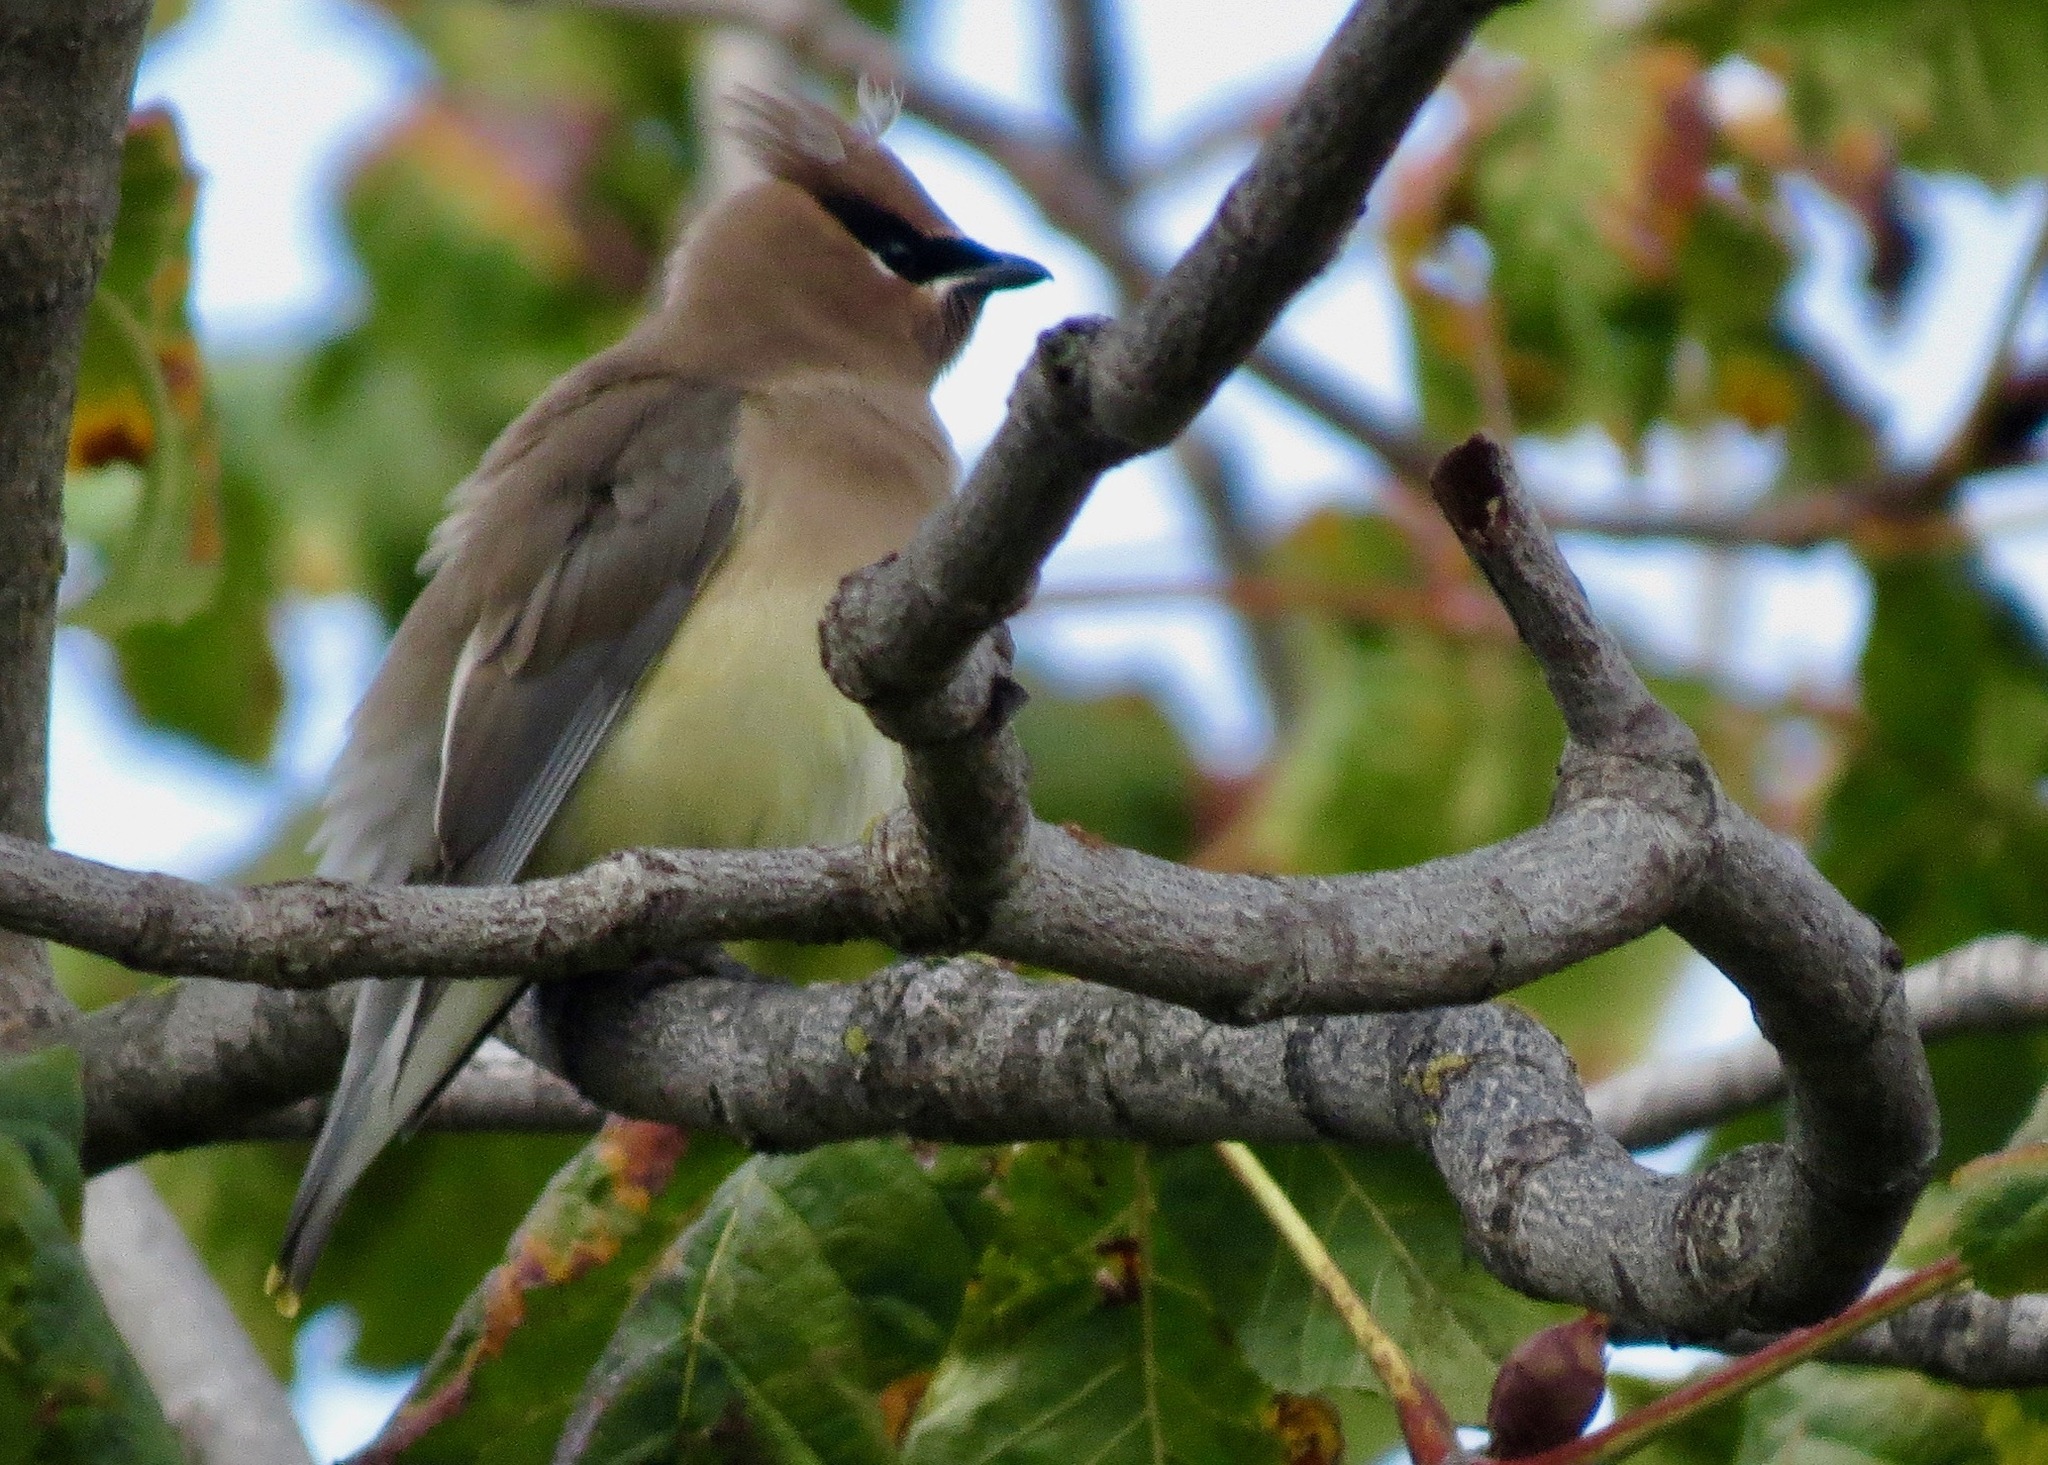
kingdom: Animalia
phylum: Chordata
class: Aves
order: Passeriformes
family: Bombycillidae
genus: Bombycilla
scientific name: Bombycilla cedrorum
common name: Cedar waxwing
